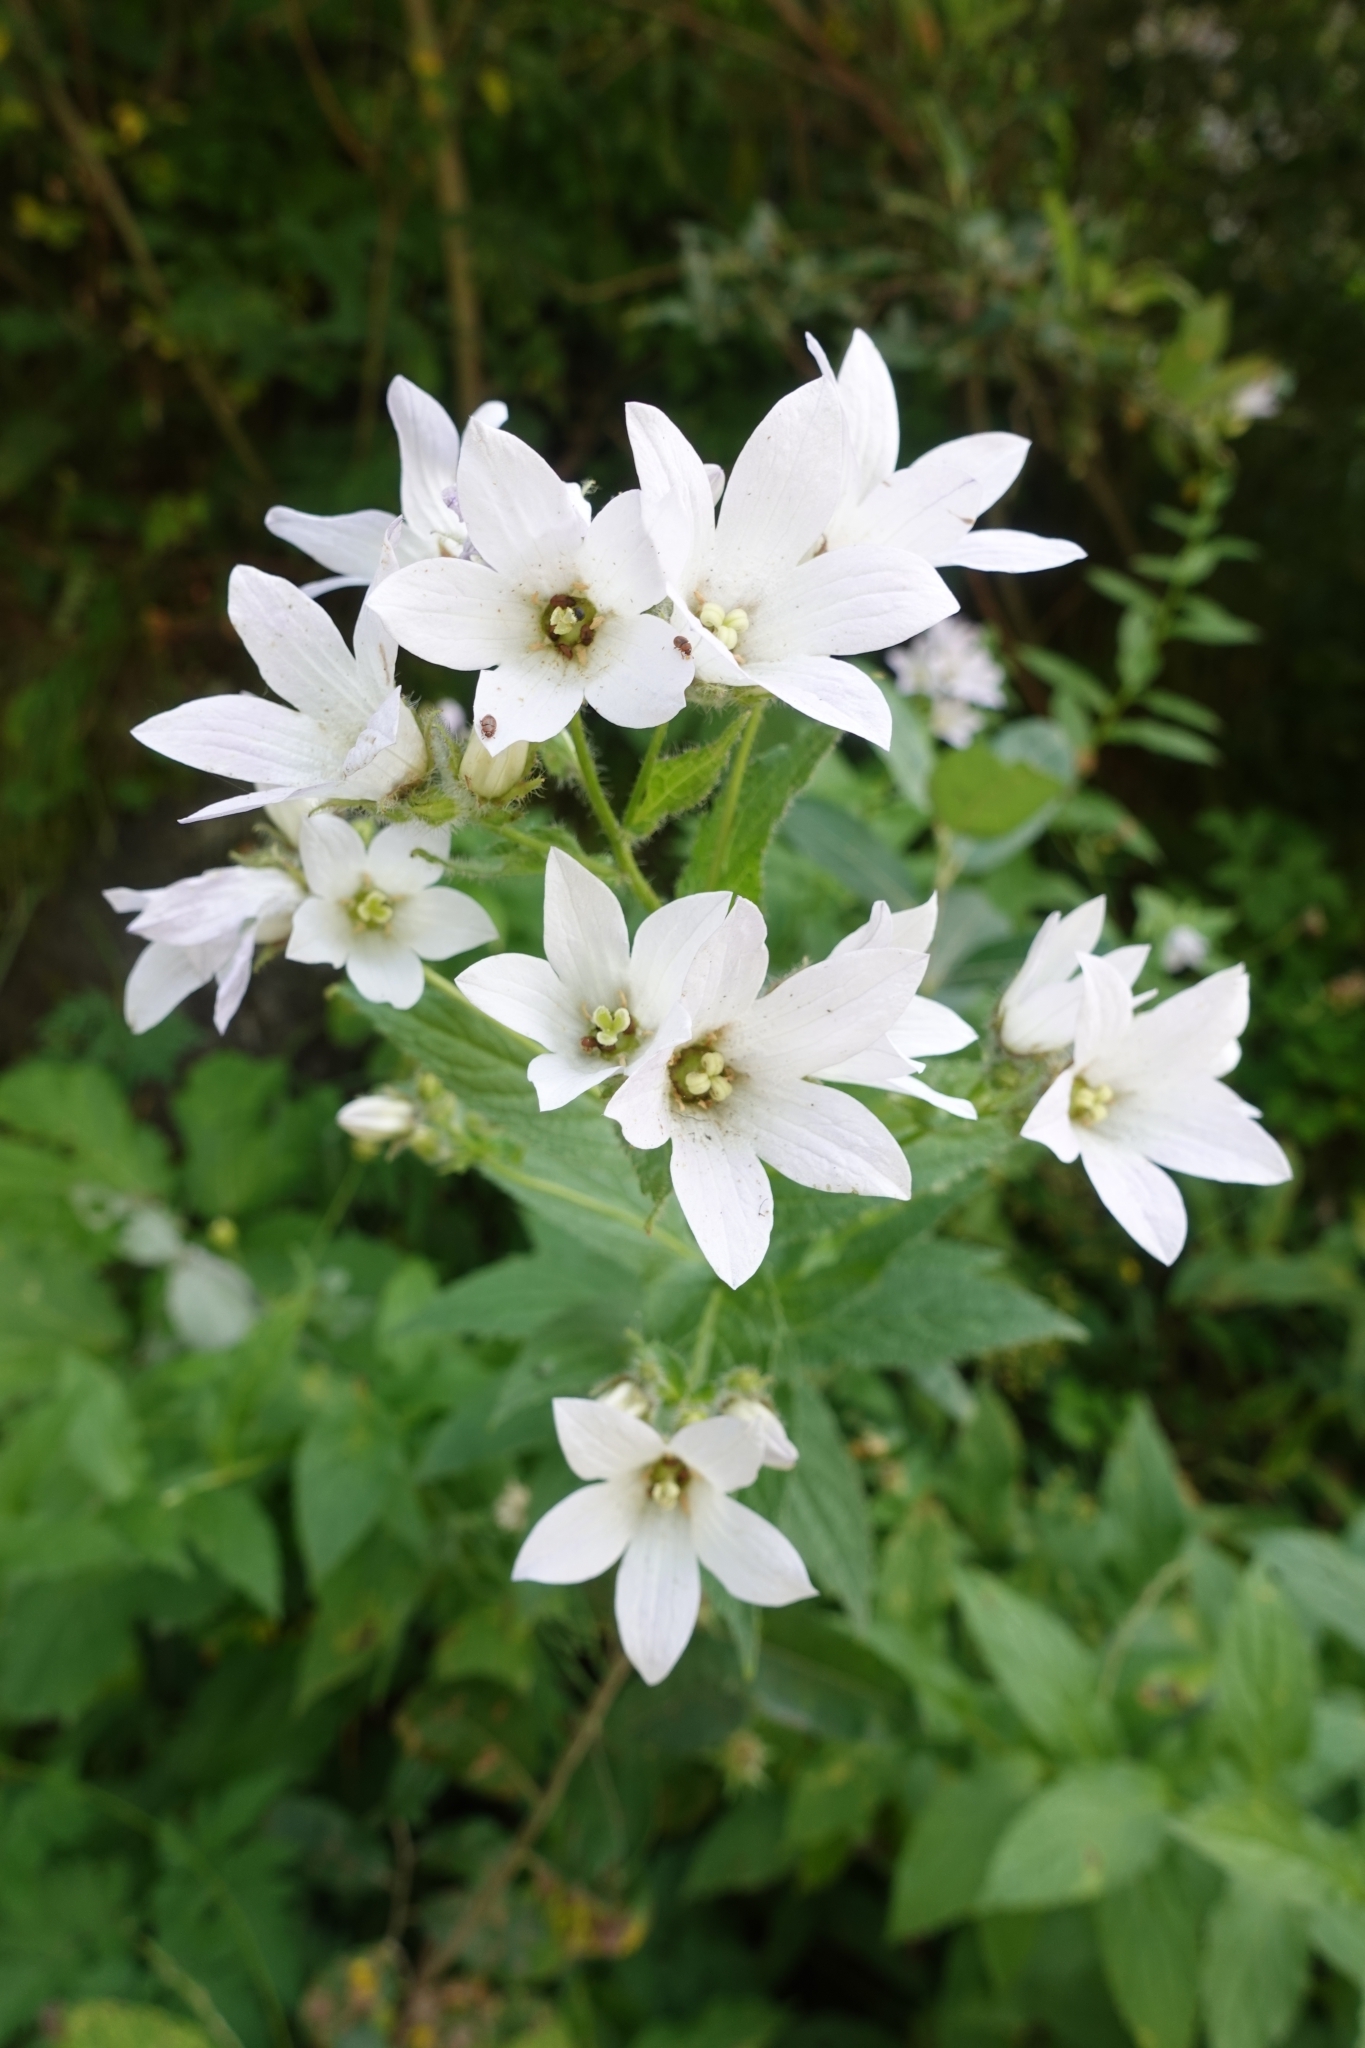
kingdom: Plantae
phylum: Tracheophyta
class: Magnoliopsida
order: Asterales
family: Campanulaceae
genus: Campanula
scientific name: Campanula lactiflora
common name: Milky bellflower
